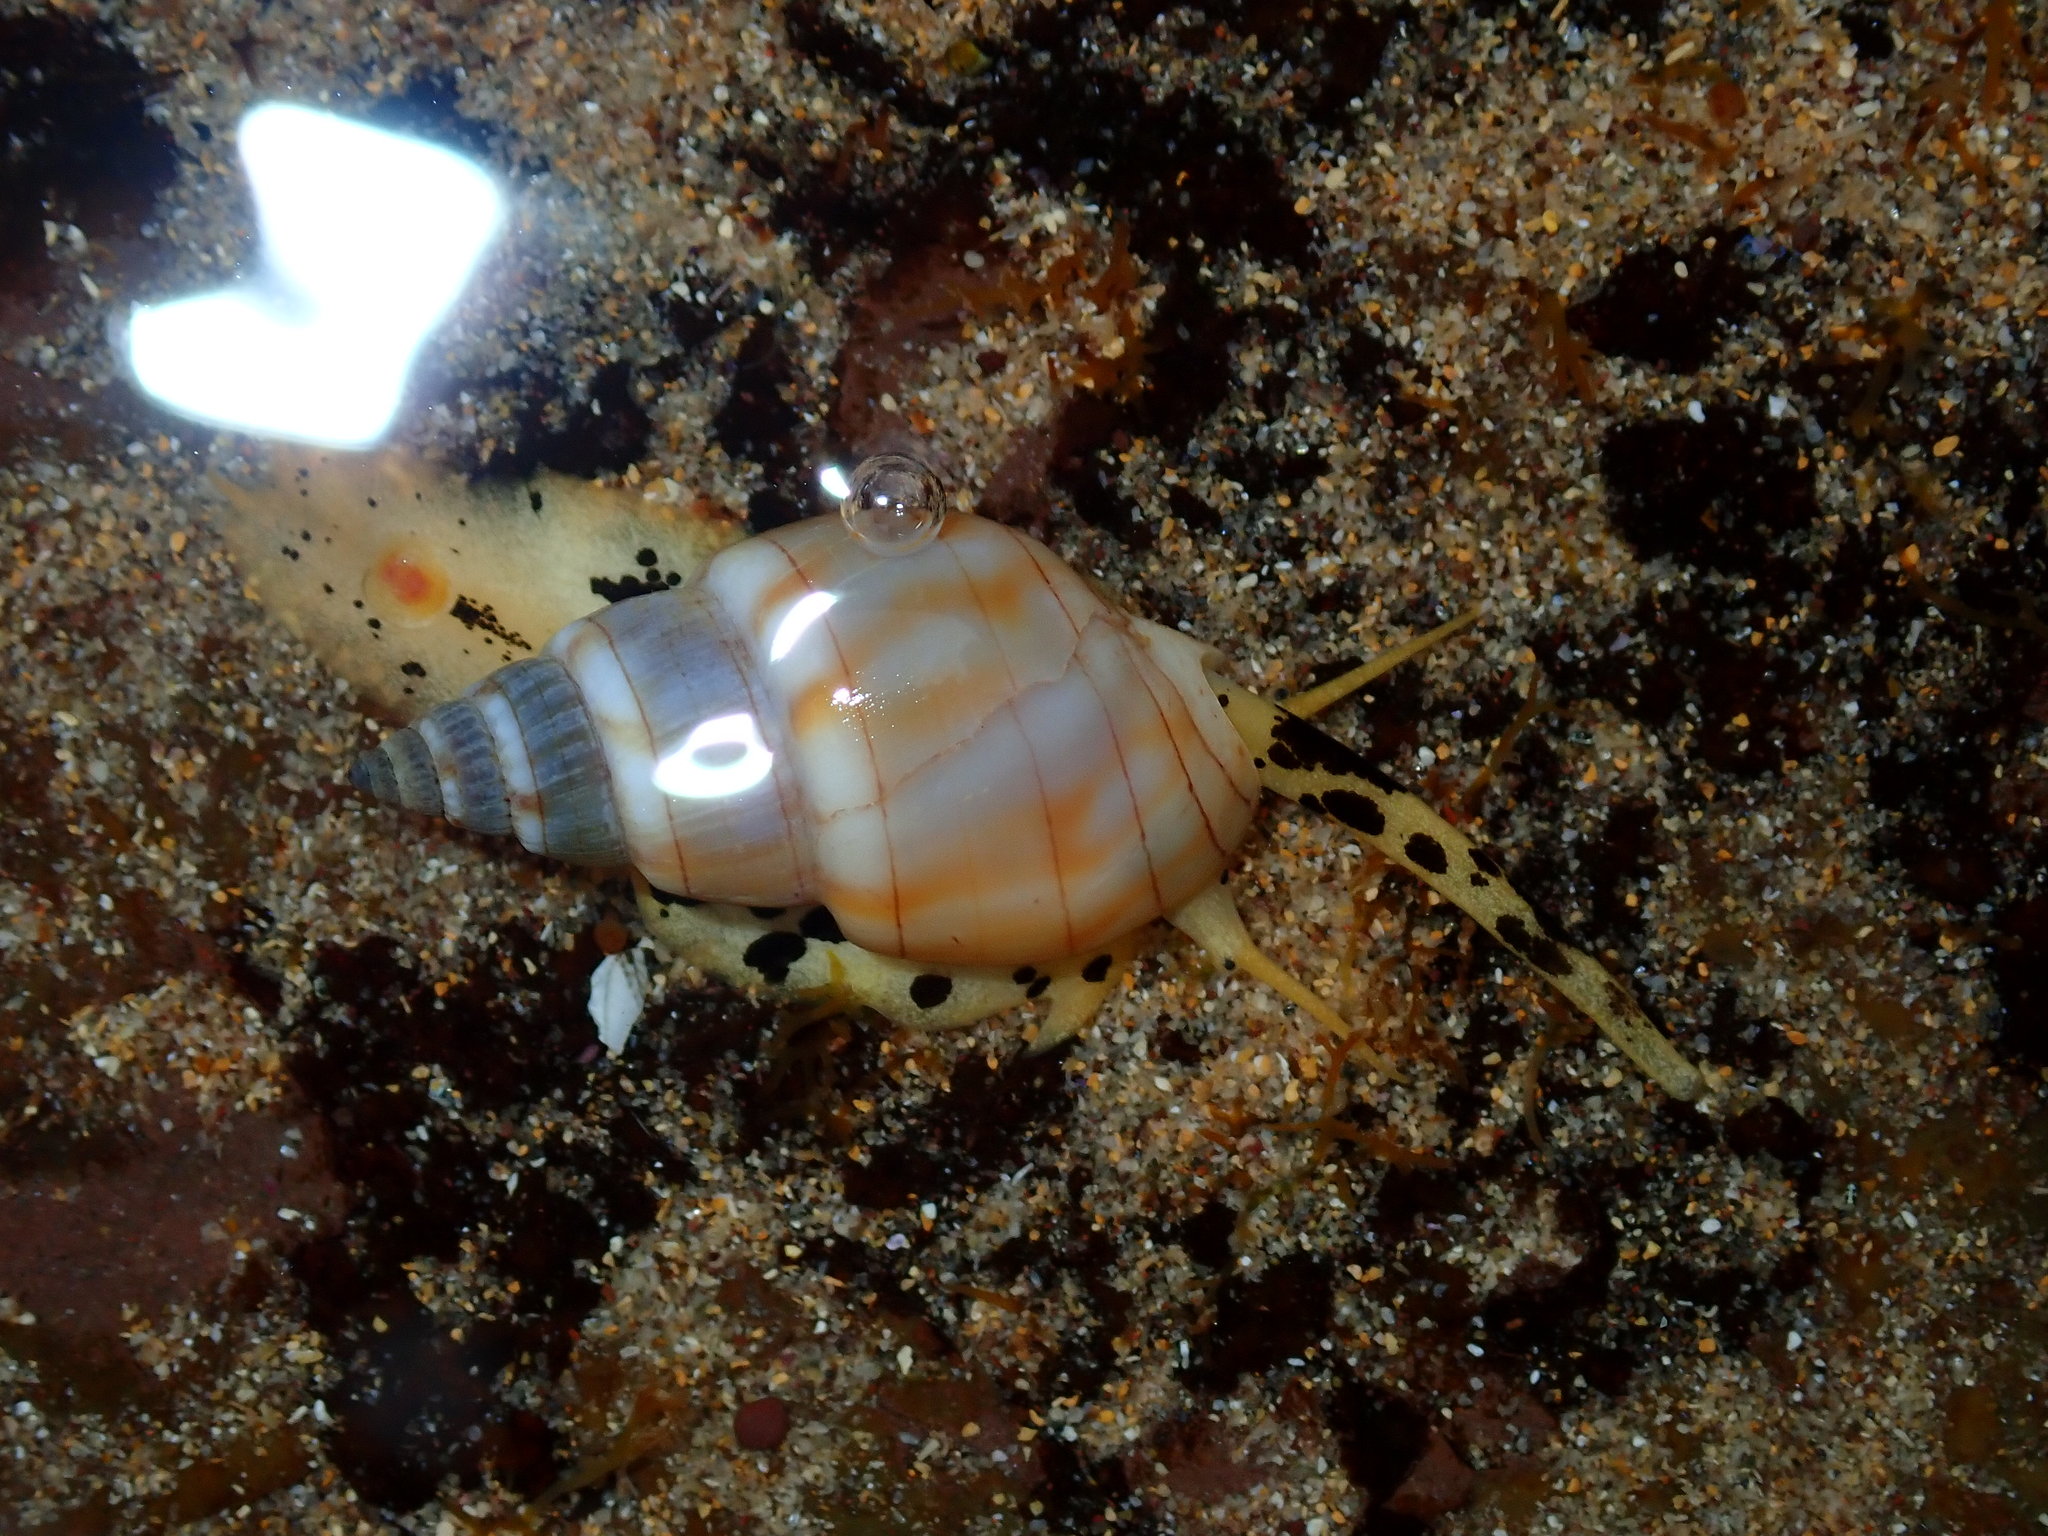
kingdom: Animalia
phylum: Mollusca
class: Gastropoda
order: Neogastropoda
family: Nassariidae
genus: Nassarius
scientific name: Nassarius particeps
